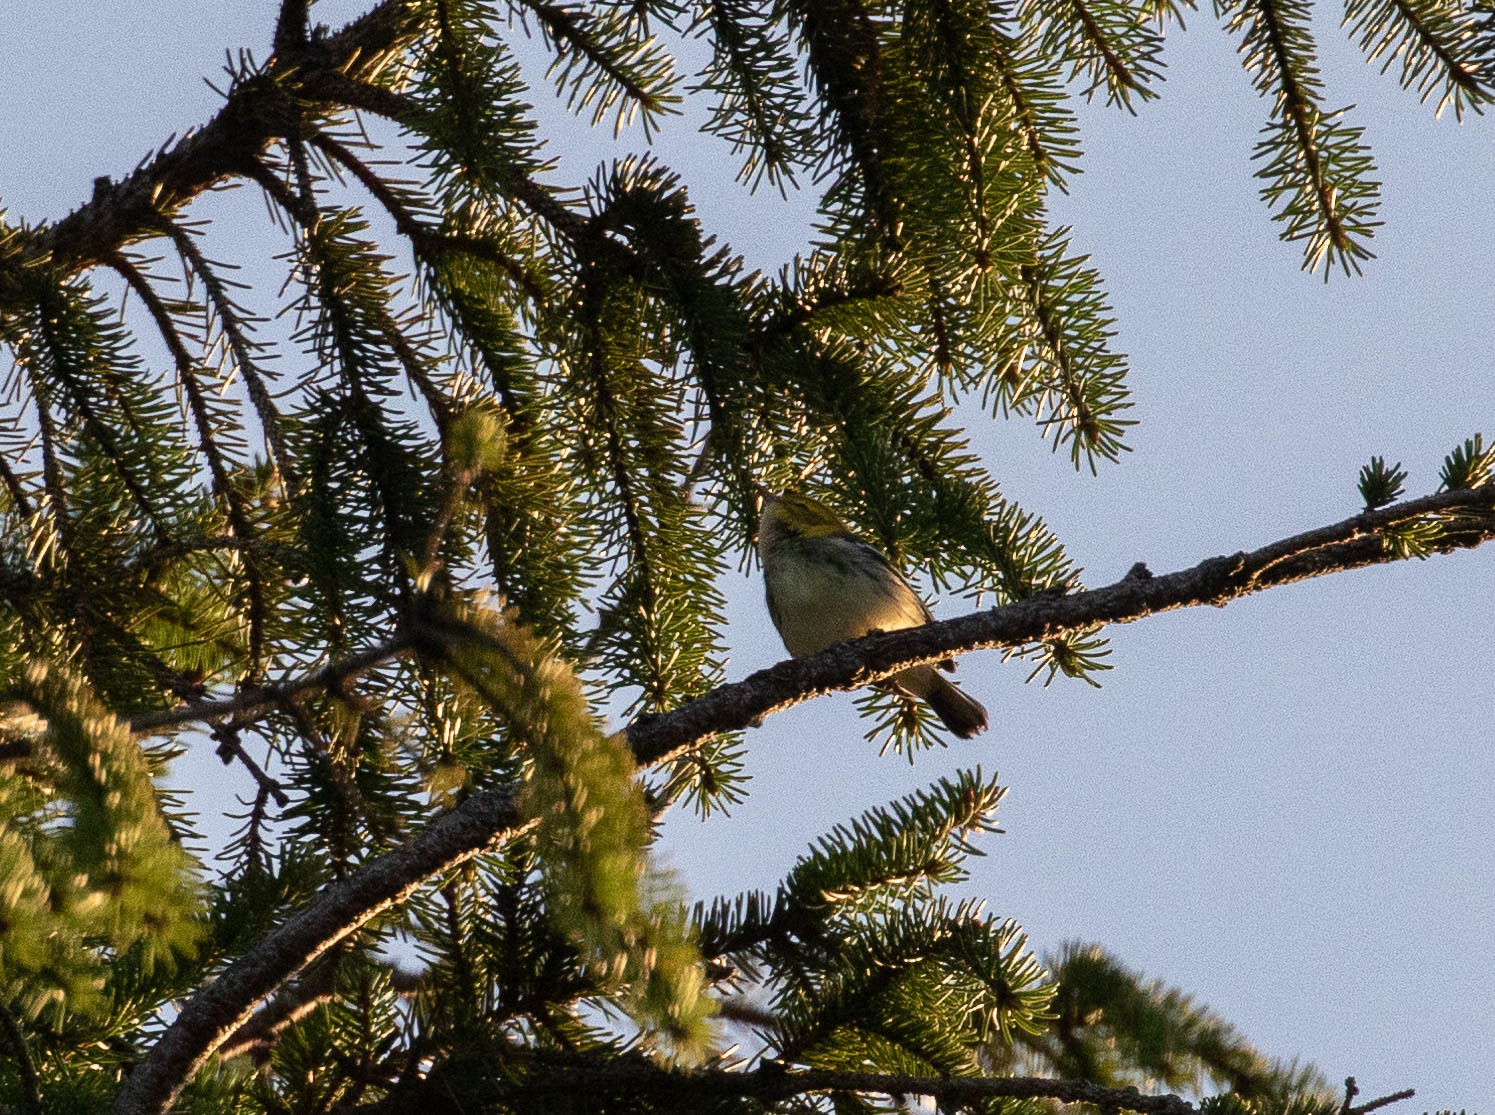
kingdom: Animalia
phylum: Chordata
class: Aves
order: Passeriformes
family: Parulidae
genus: Setophaga
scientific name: Setophaga virens
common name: Black-throated green warbler
